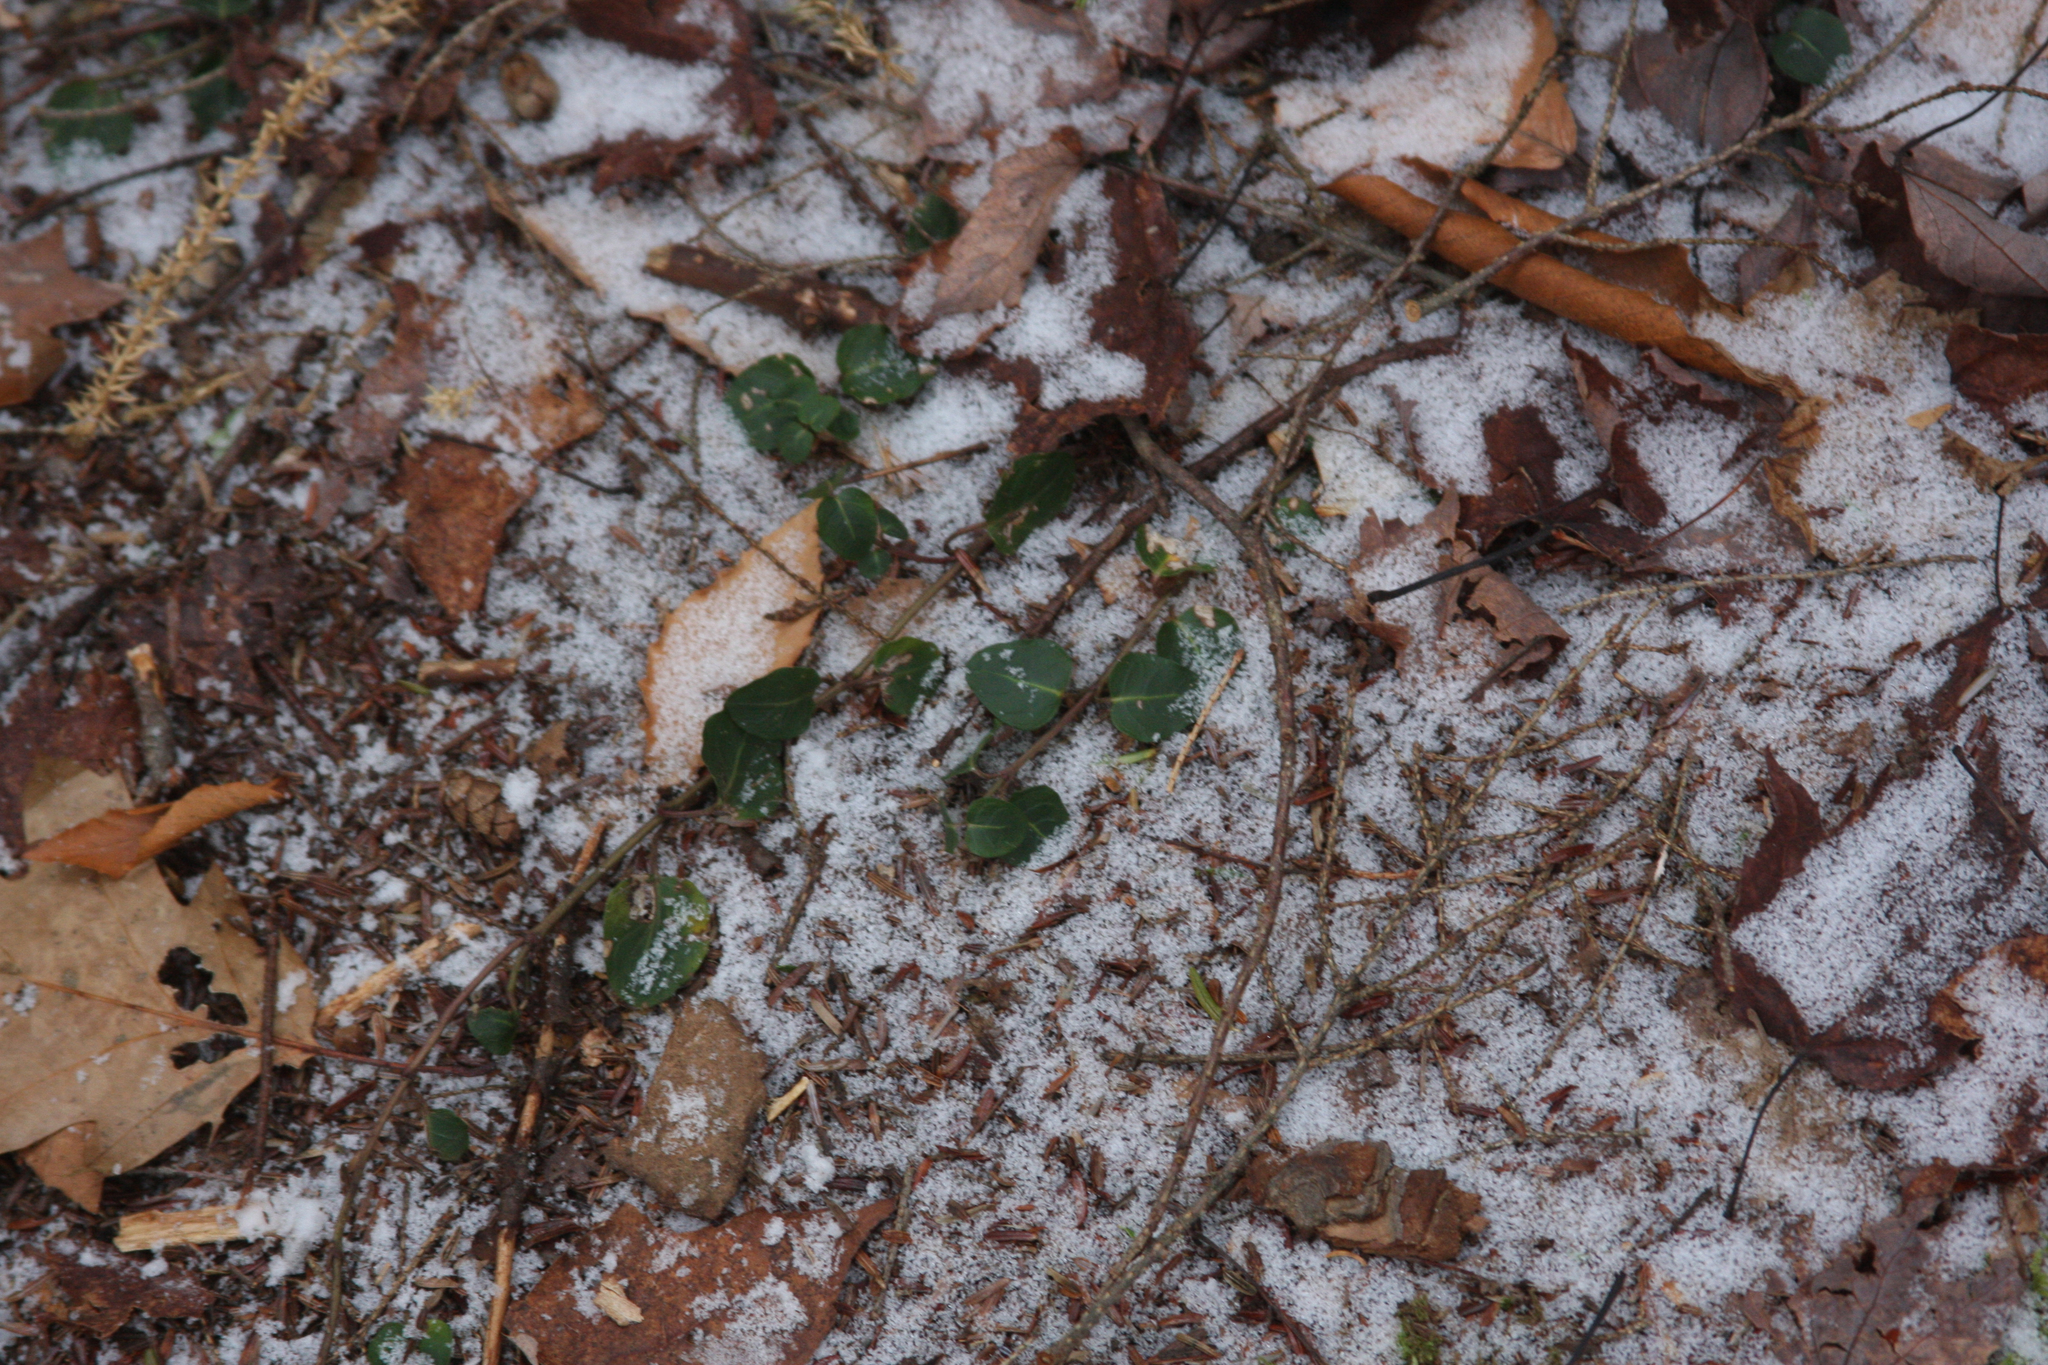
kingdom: Plantae
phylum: Tracheophyta
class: Magnoliopsida
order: Gentianales
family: Rubiaceae
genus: Mitchella
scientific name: Mitchella repens
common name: Partridge-berry
